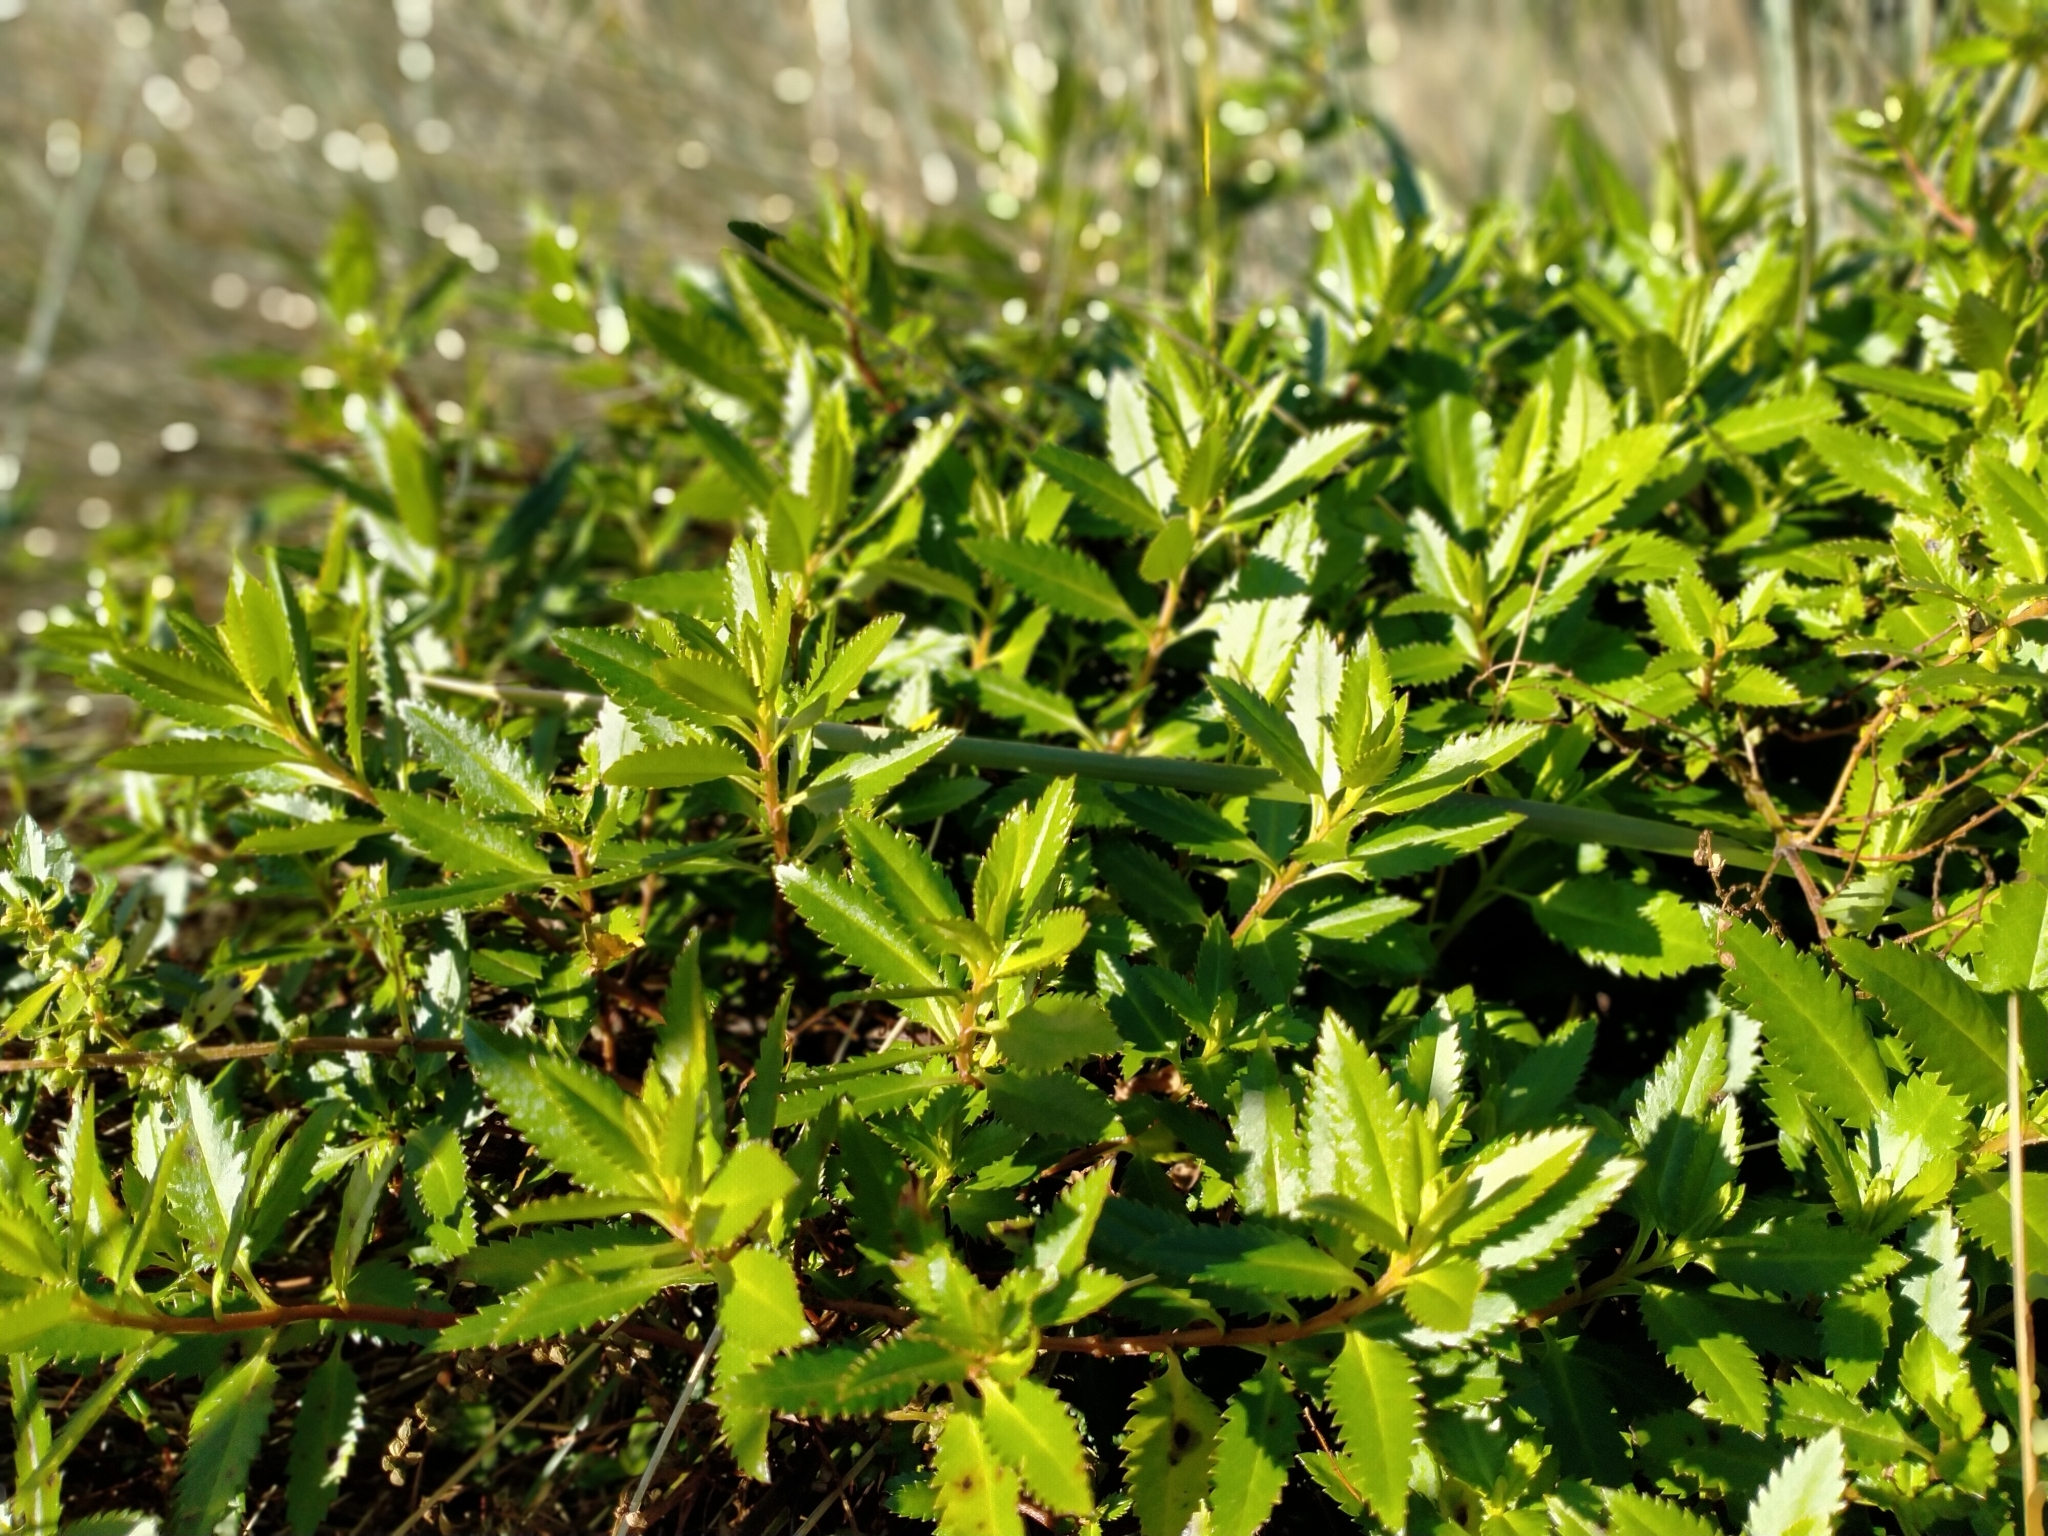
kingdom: Plantae
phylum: Tracheophyta
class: Magnoliopsida
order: Saxifragales
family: Haloragaceae
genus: Haloragis
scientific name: Haloragis erecta
